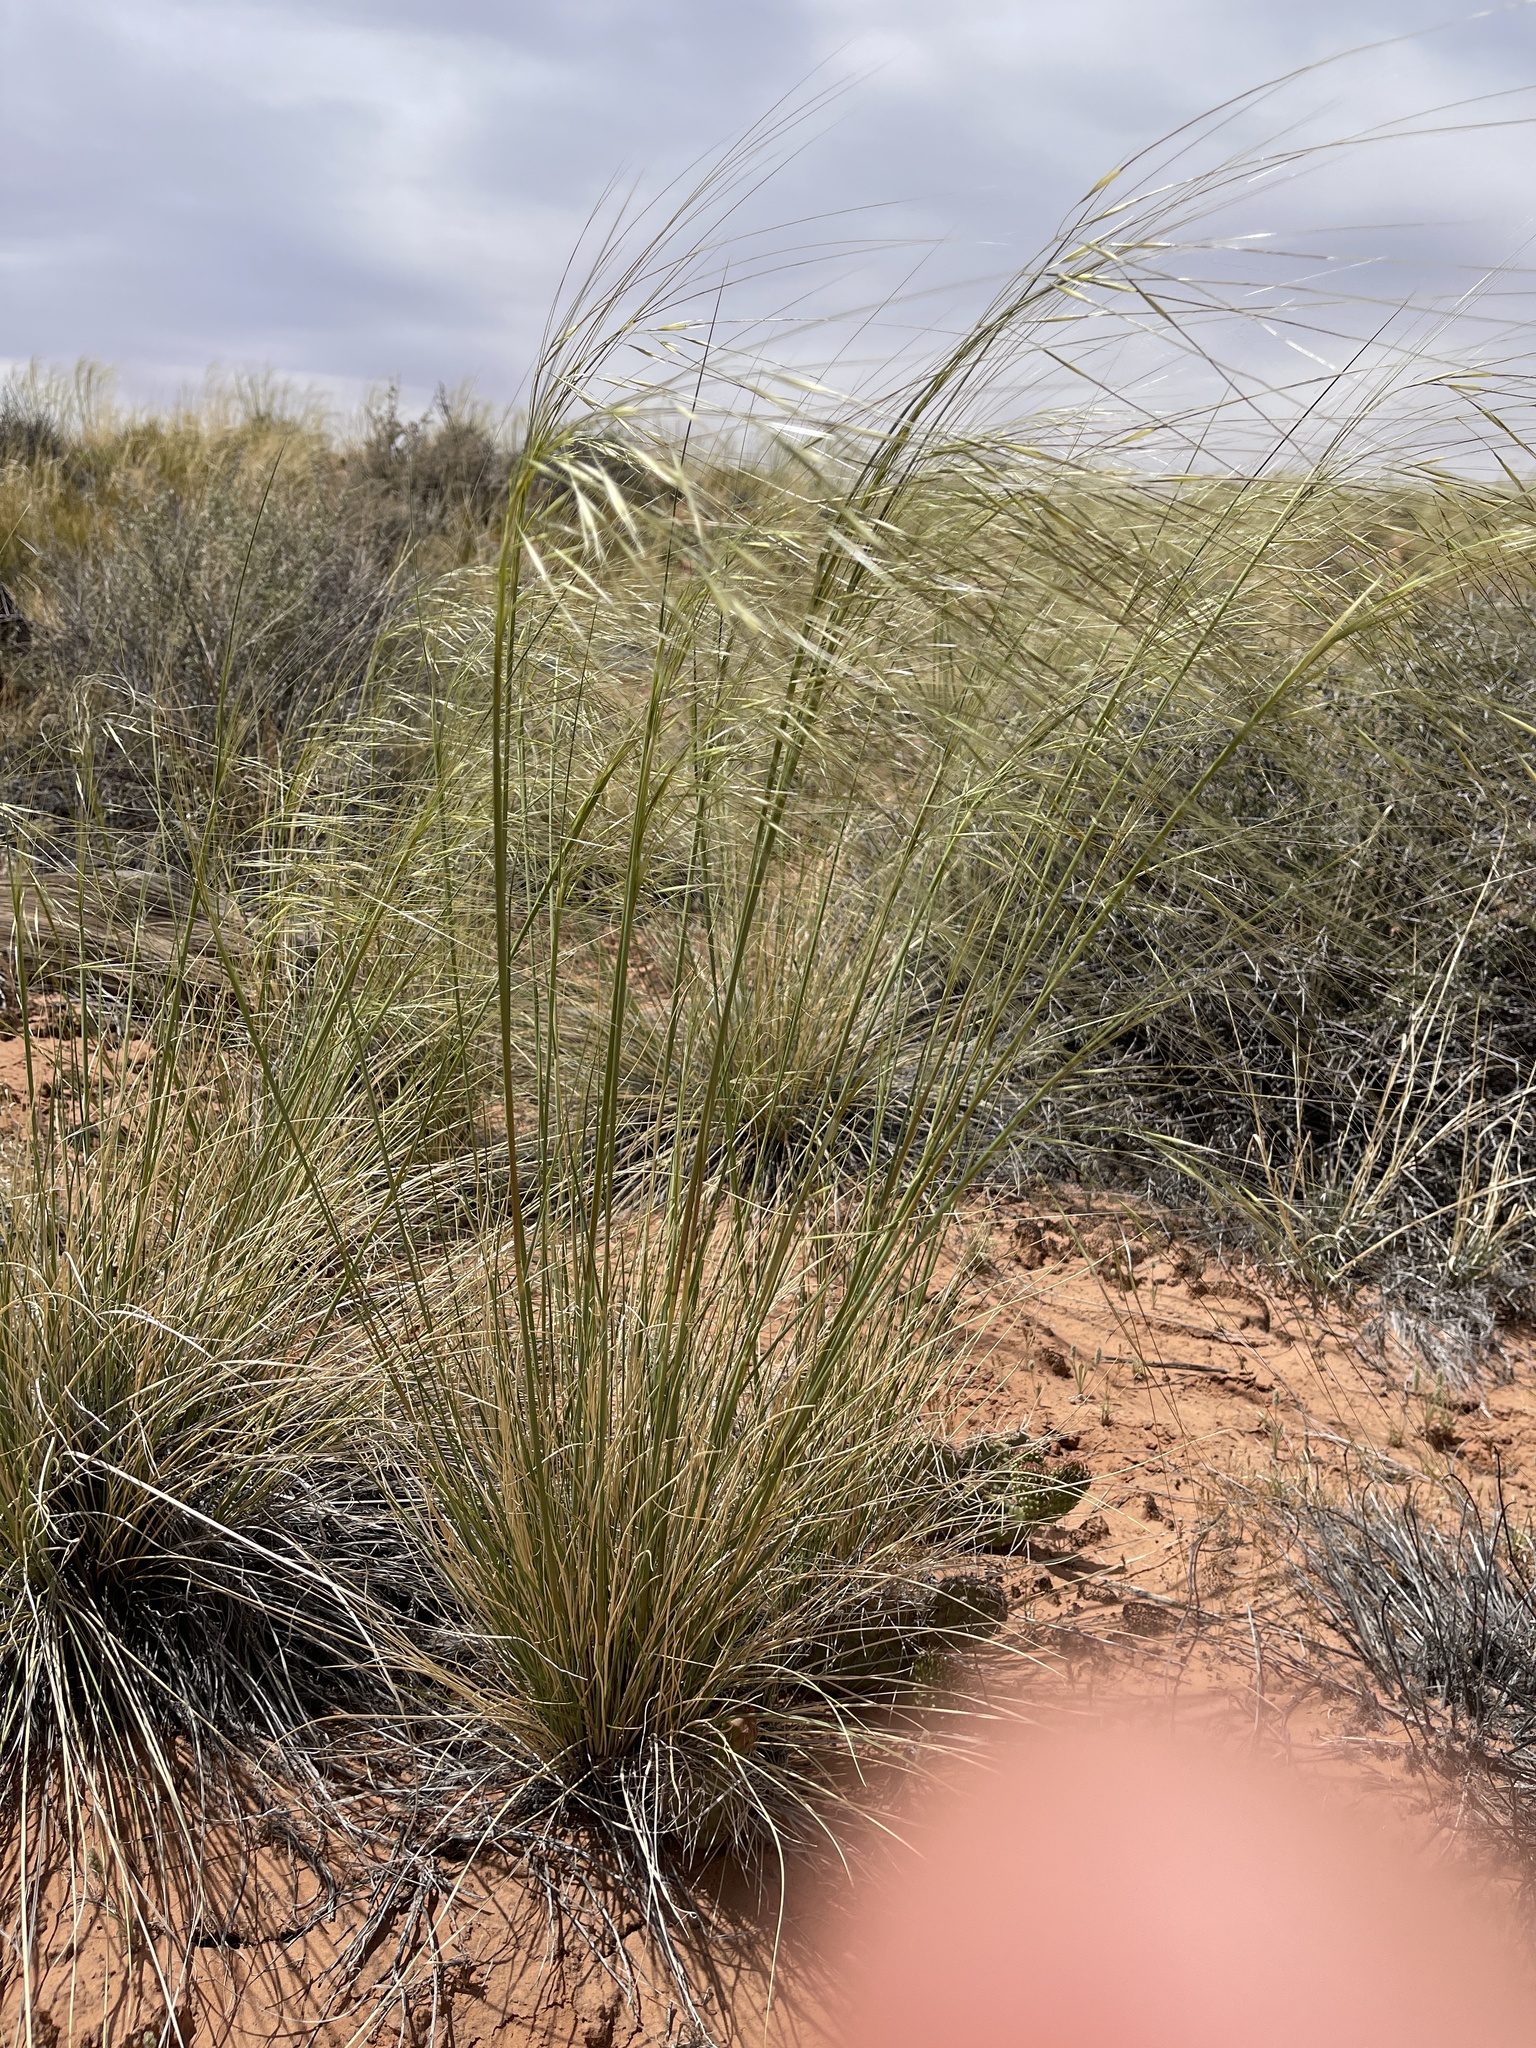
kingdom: Plantae
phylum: Tracheophyta
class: Liliopsida
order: Poales
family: Poaceae
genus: Hesperostipa
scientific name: Hesperostipa comata
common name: Needle-and-thread grass
